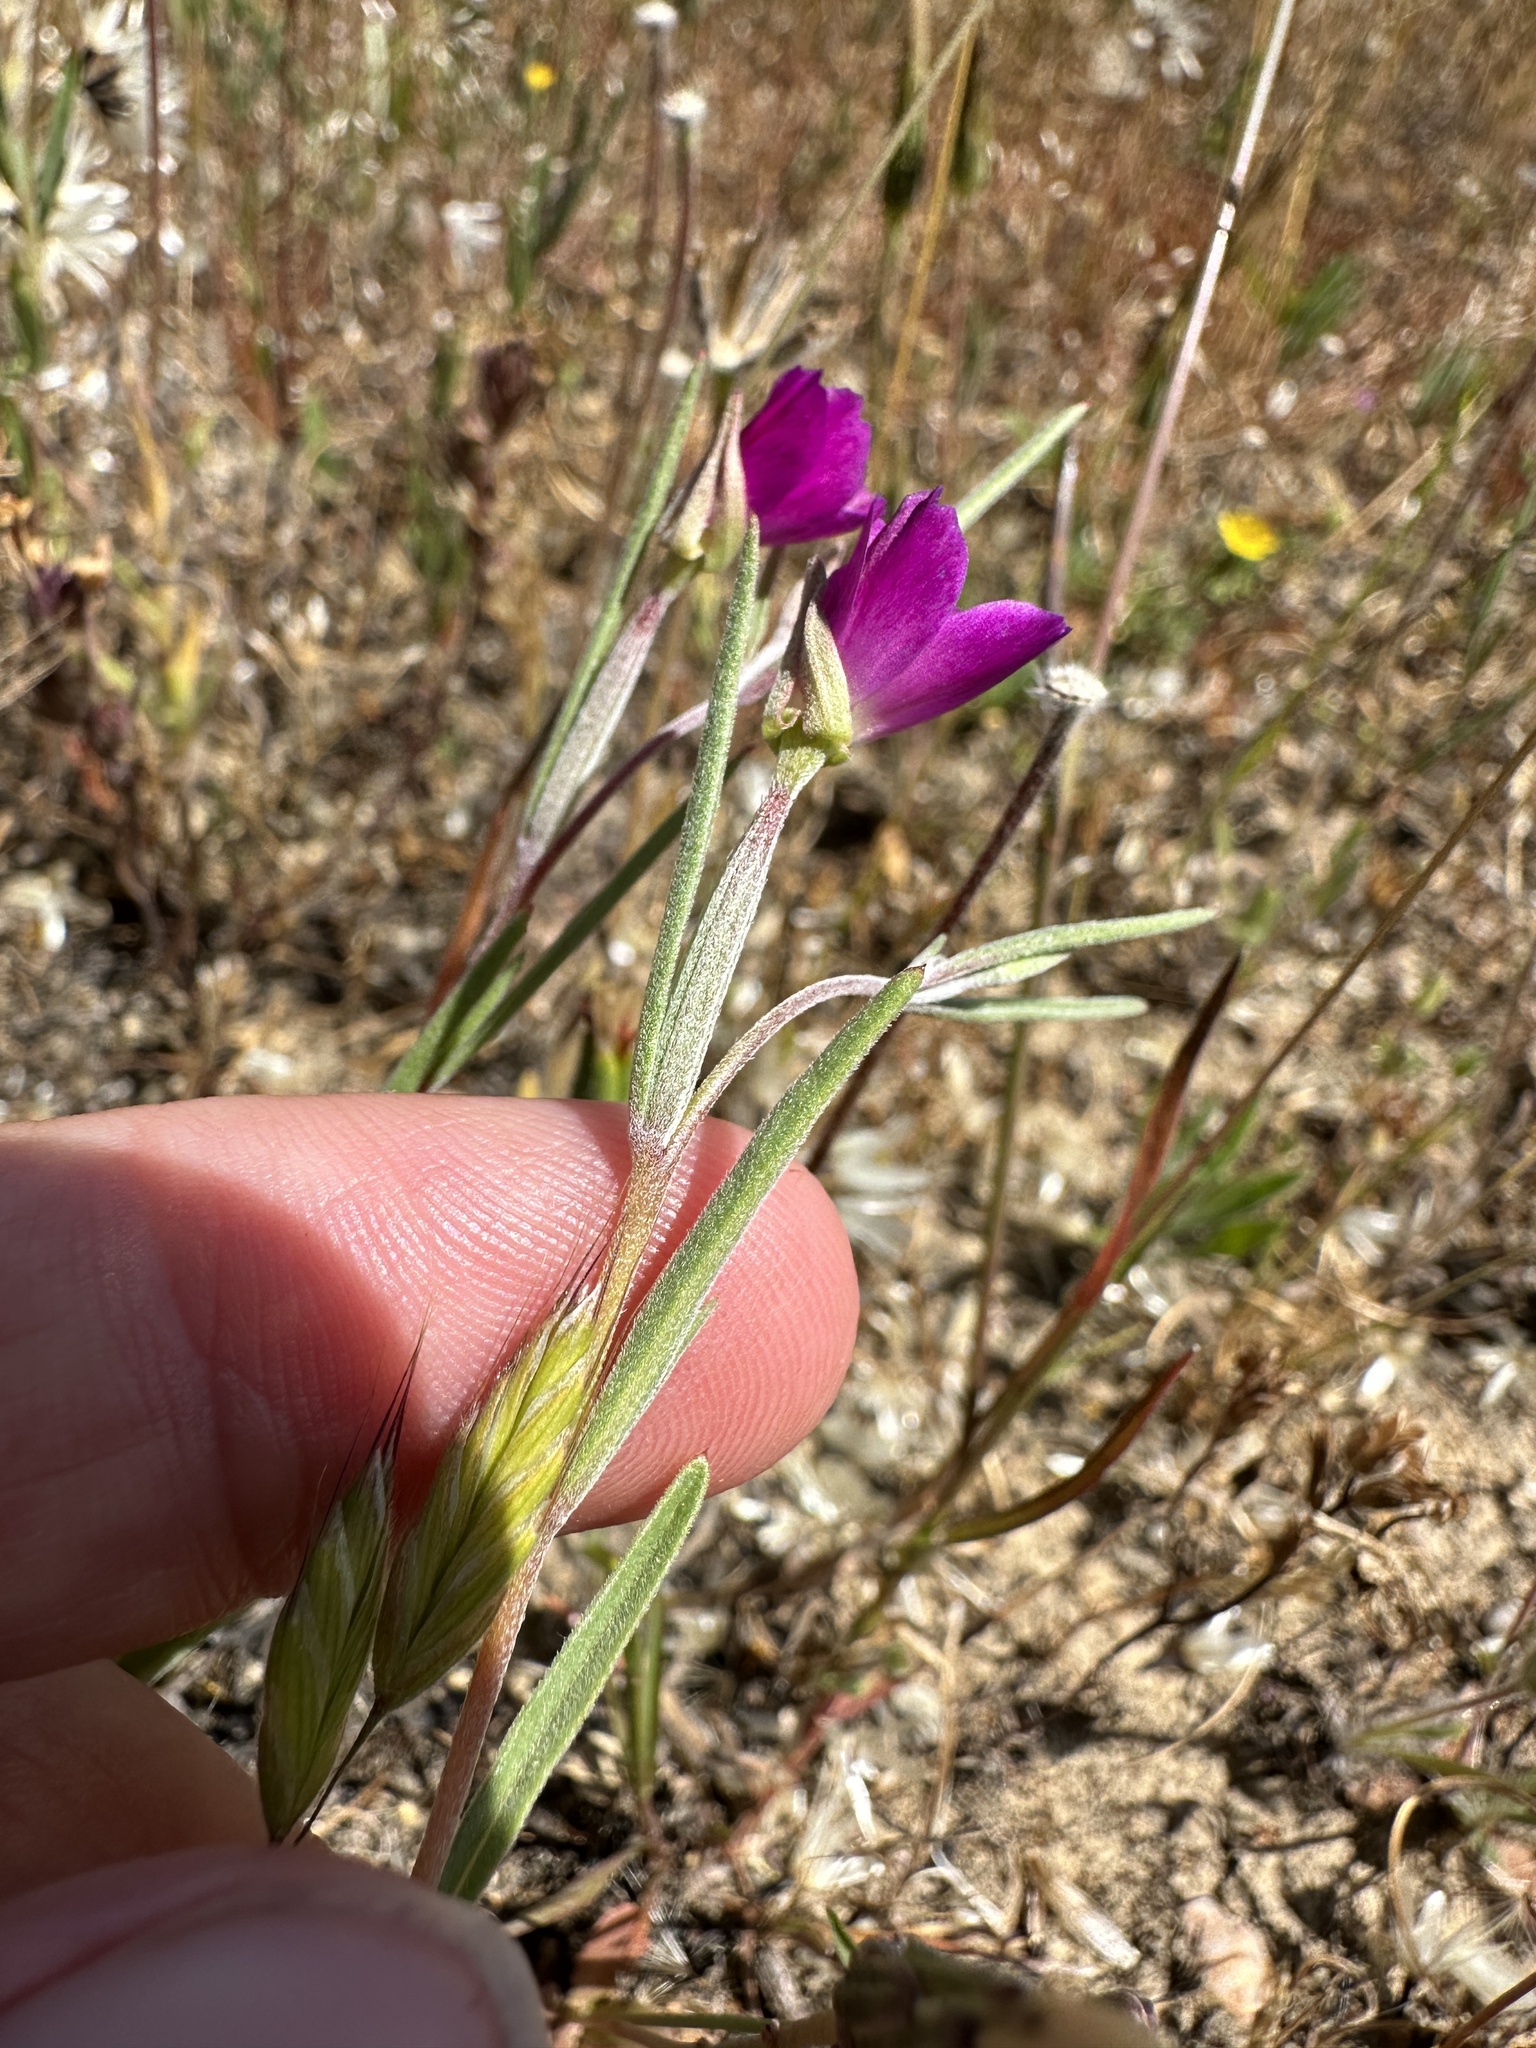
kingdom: Plantae
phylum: Tracheophyta
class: Magnoliopsida
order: Myrtales
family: Onagraceae
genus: Clarkia
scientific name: Clarkia purpurea
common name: Purple clarkia
